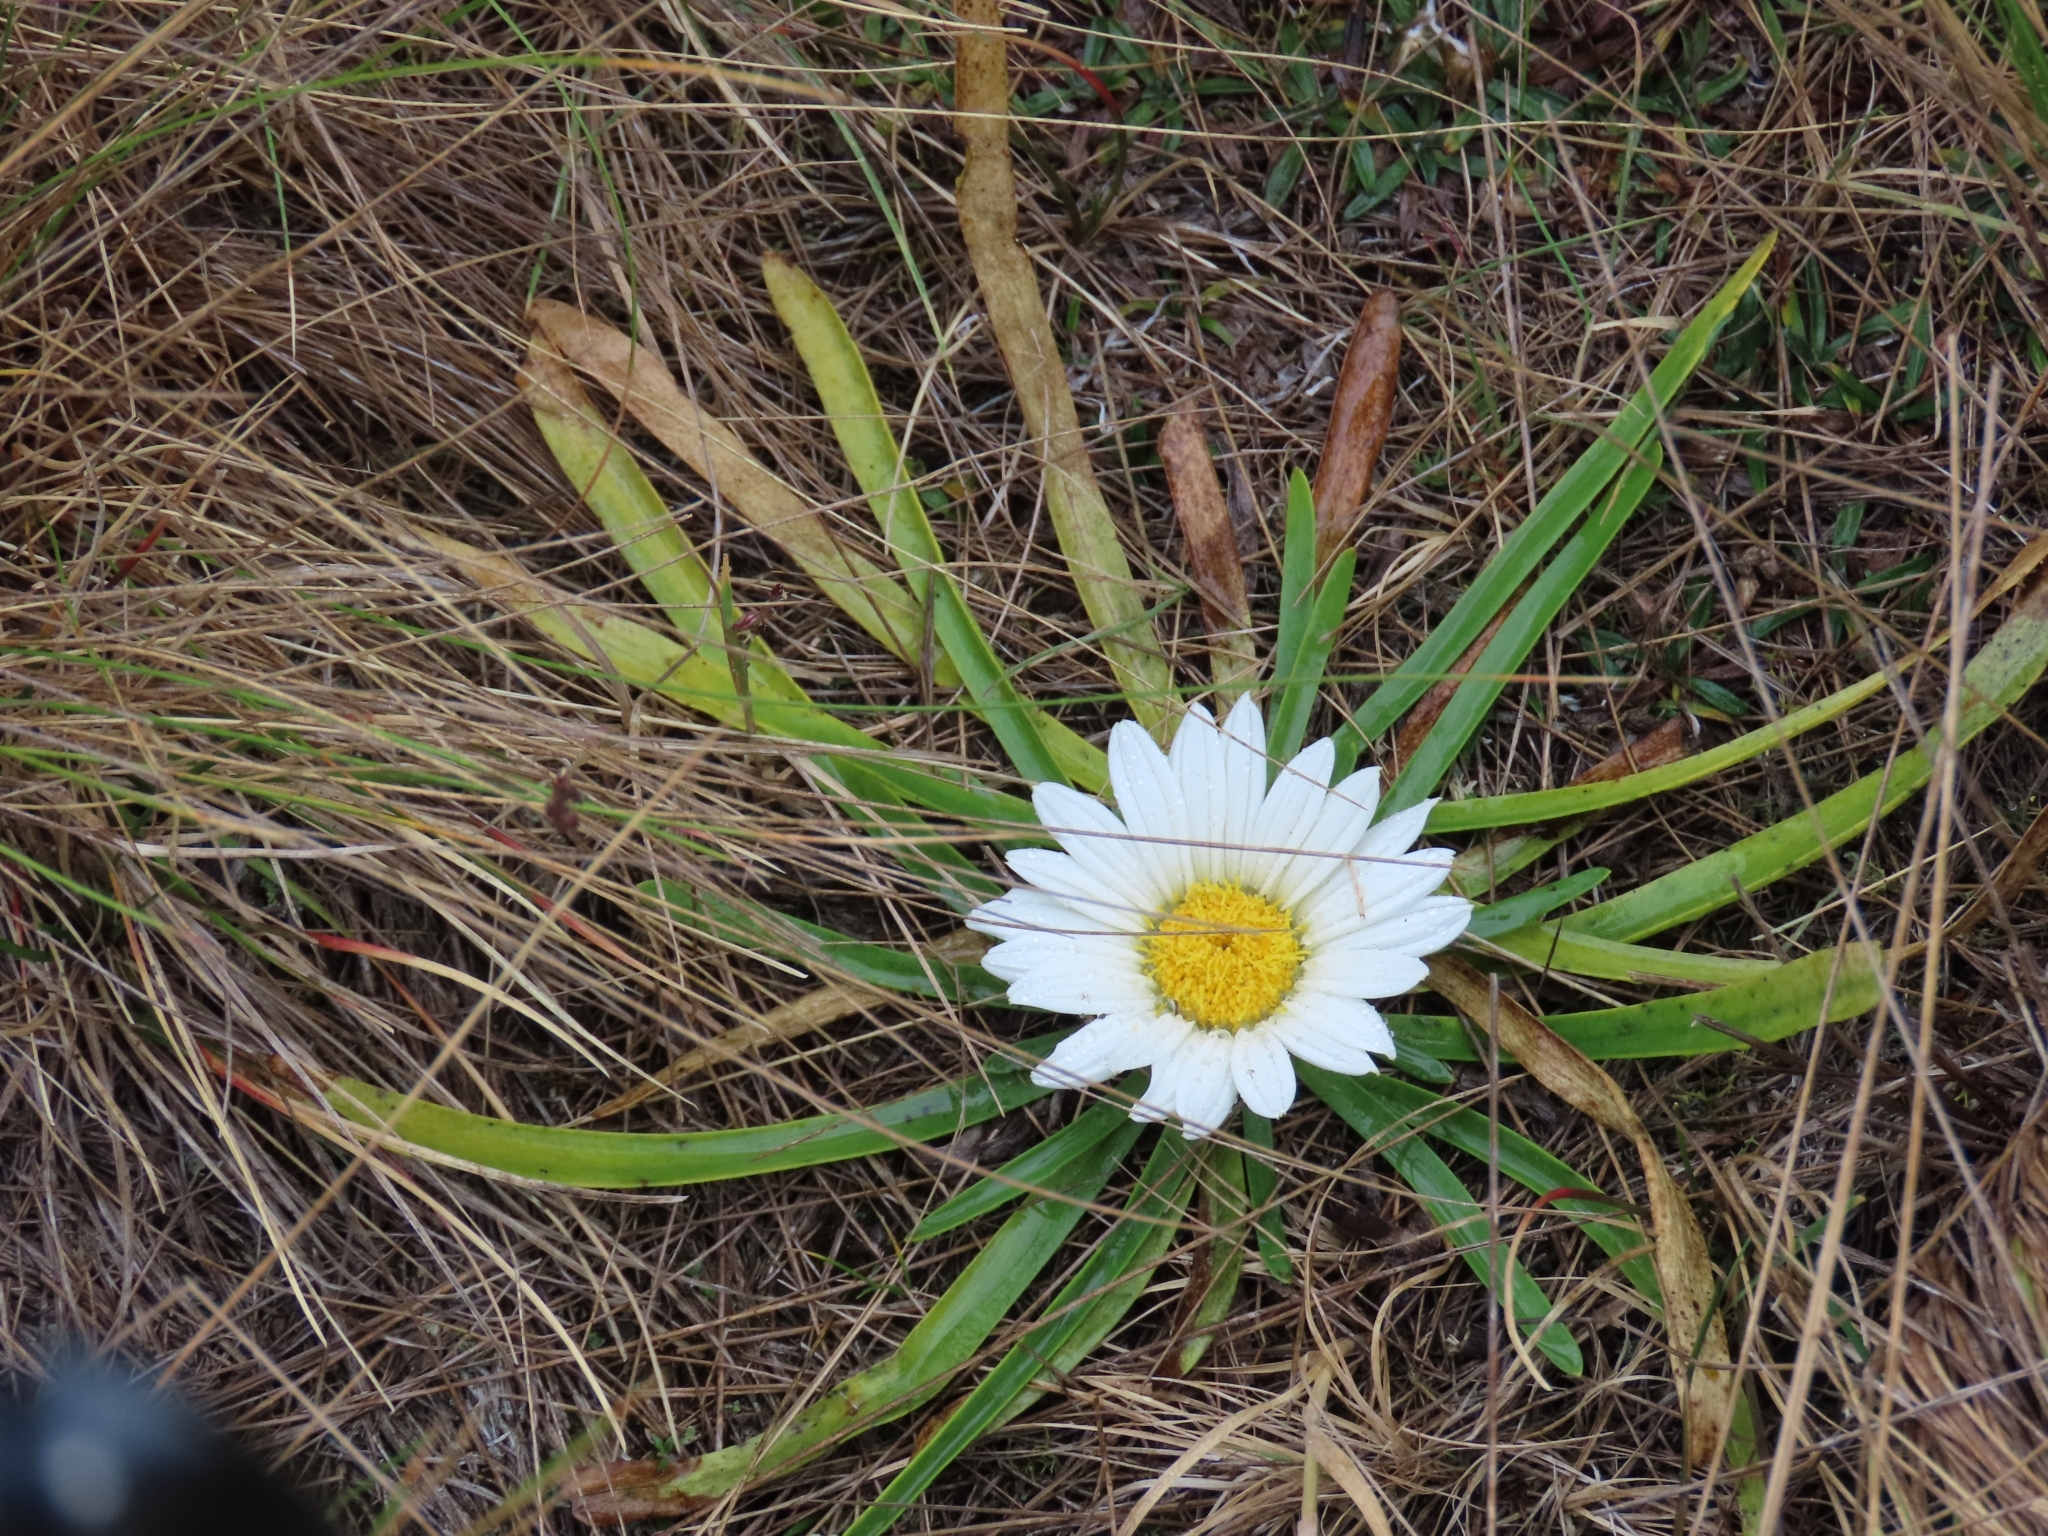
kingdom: Plantae
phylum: Tracheophyta
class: Magnoliopsida
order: Asterales
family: Asteraceae
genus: Rockhausenia
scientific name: Rockhausenia nubigena
